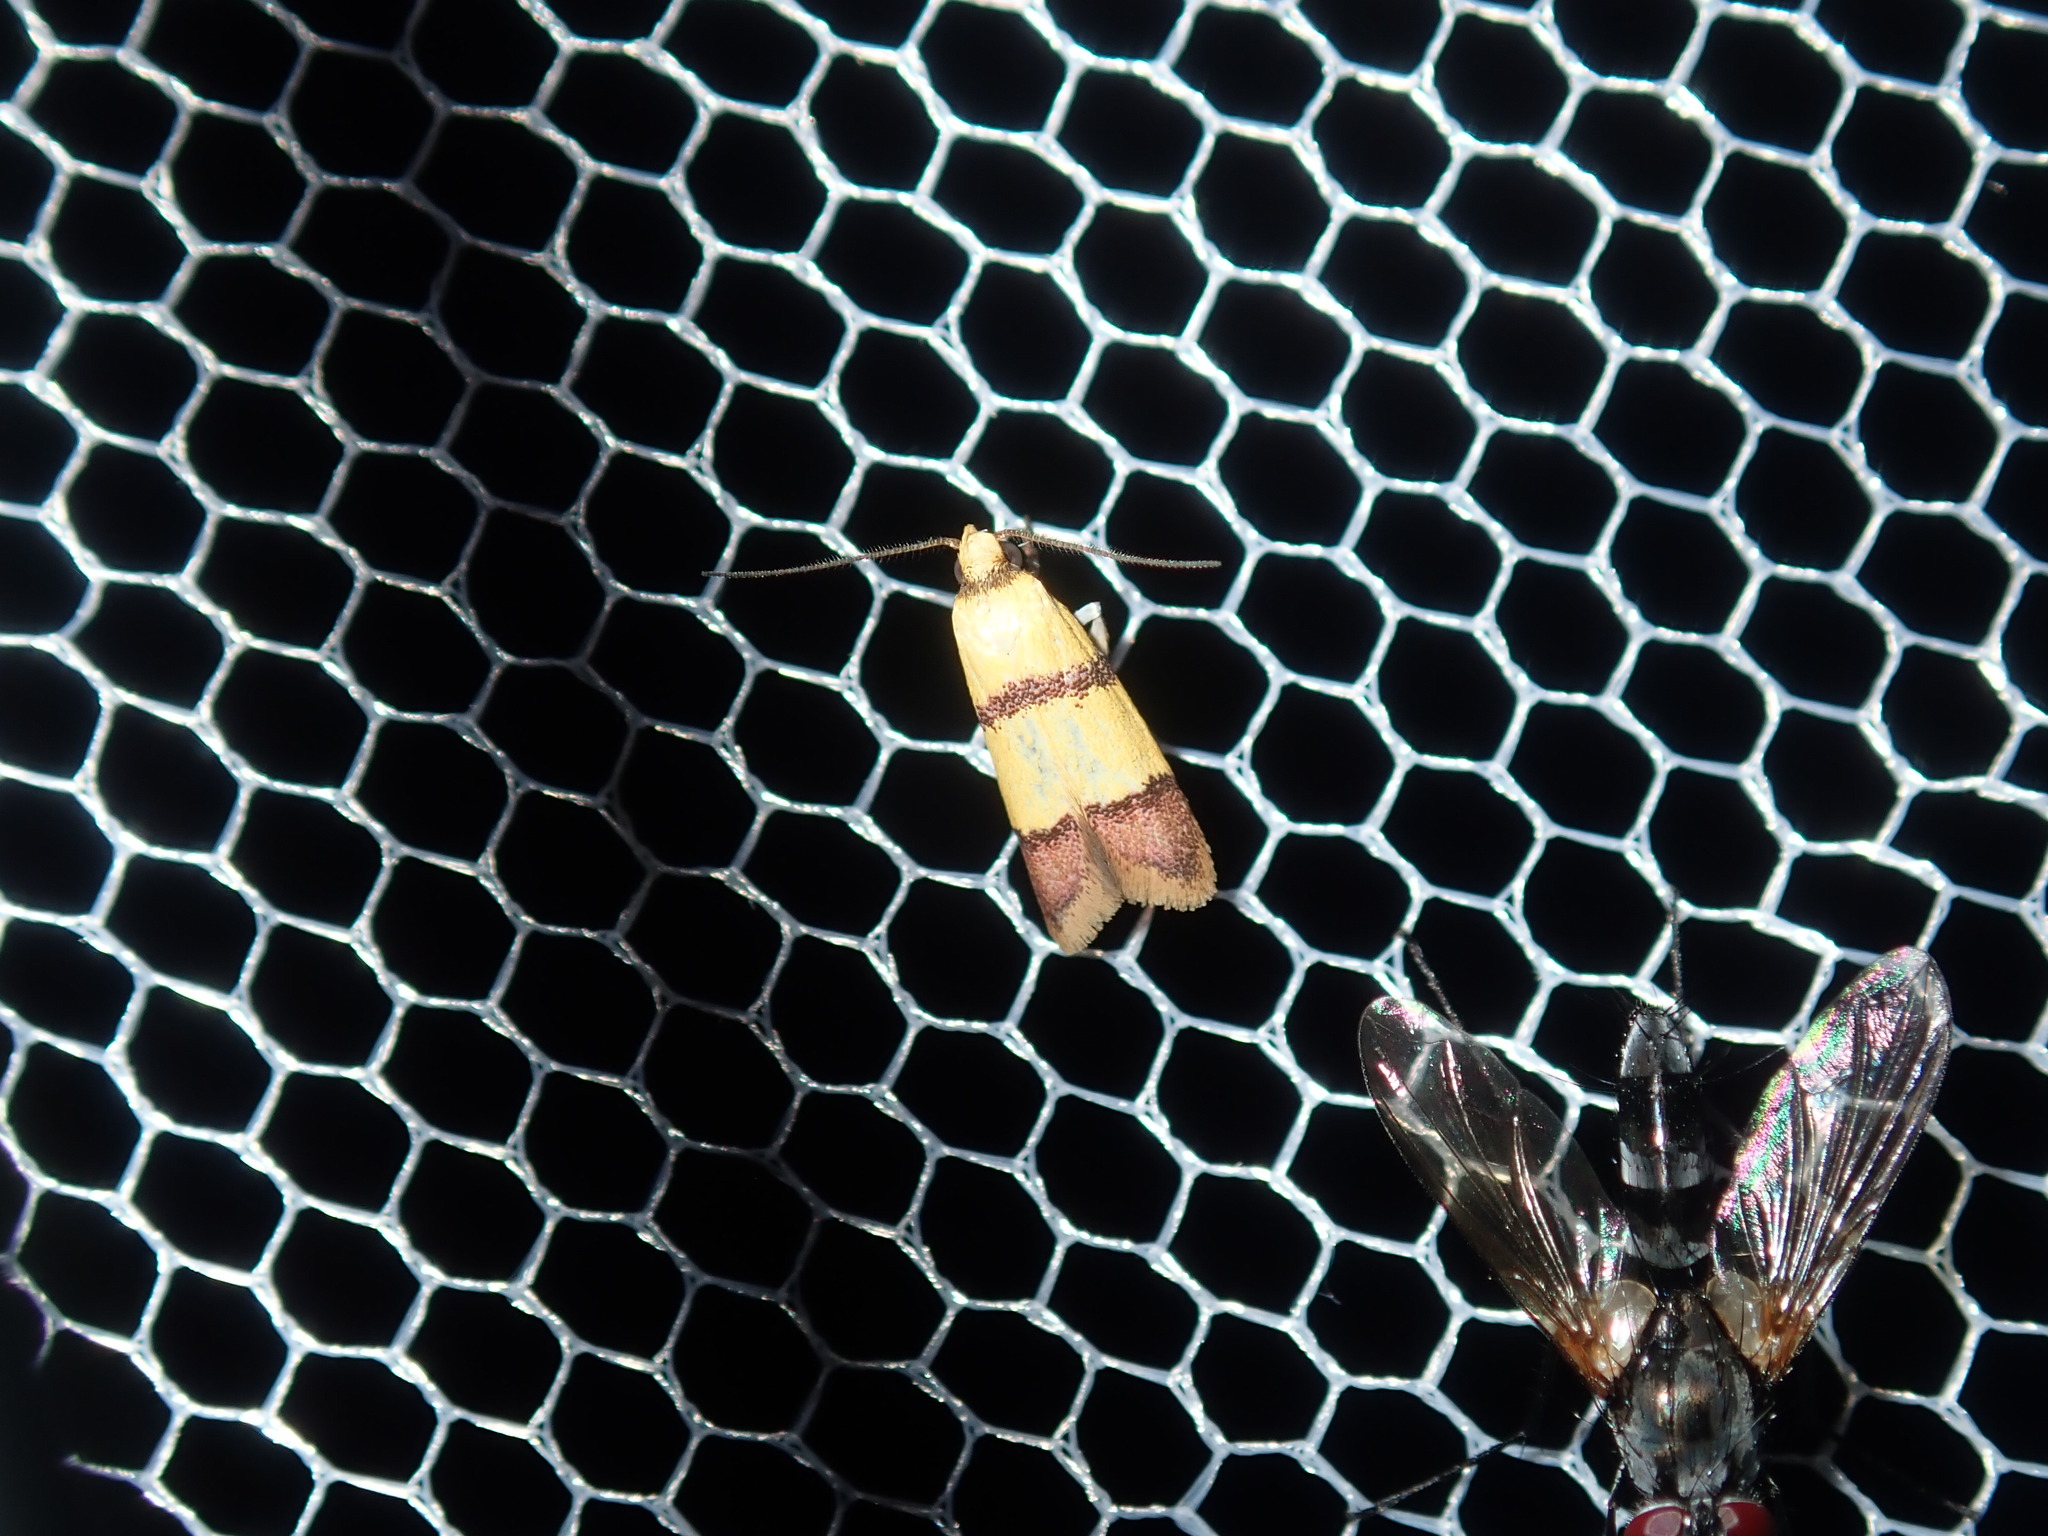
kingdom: Animalia
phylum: Arthropoda
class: Insecta
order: Lepidoptera
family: Oecophoridae
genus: Heteroteucha
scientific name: Heteroteucha distephana
